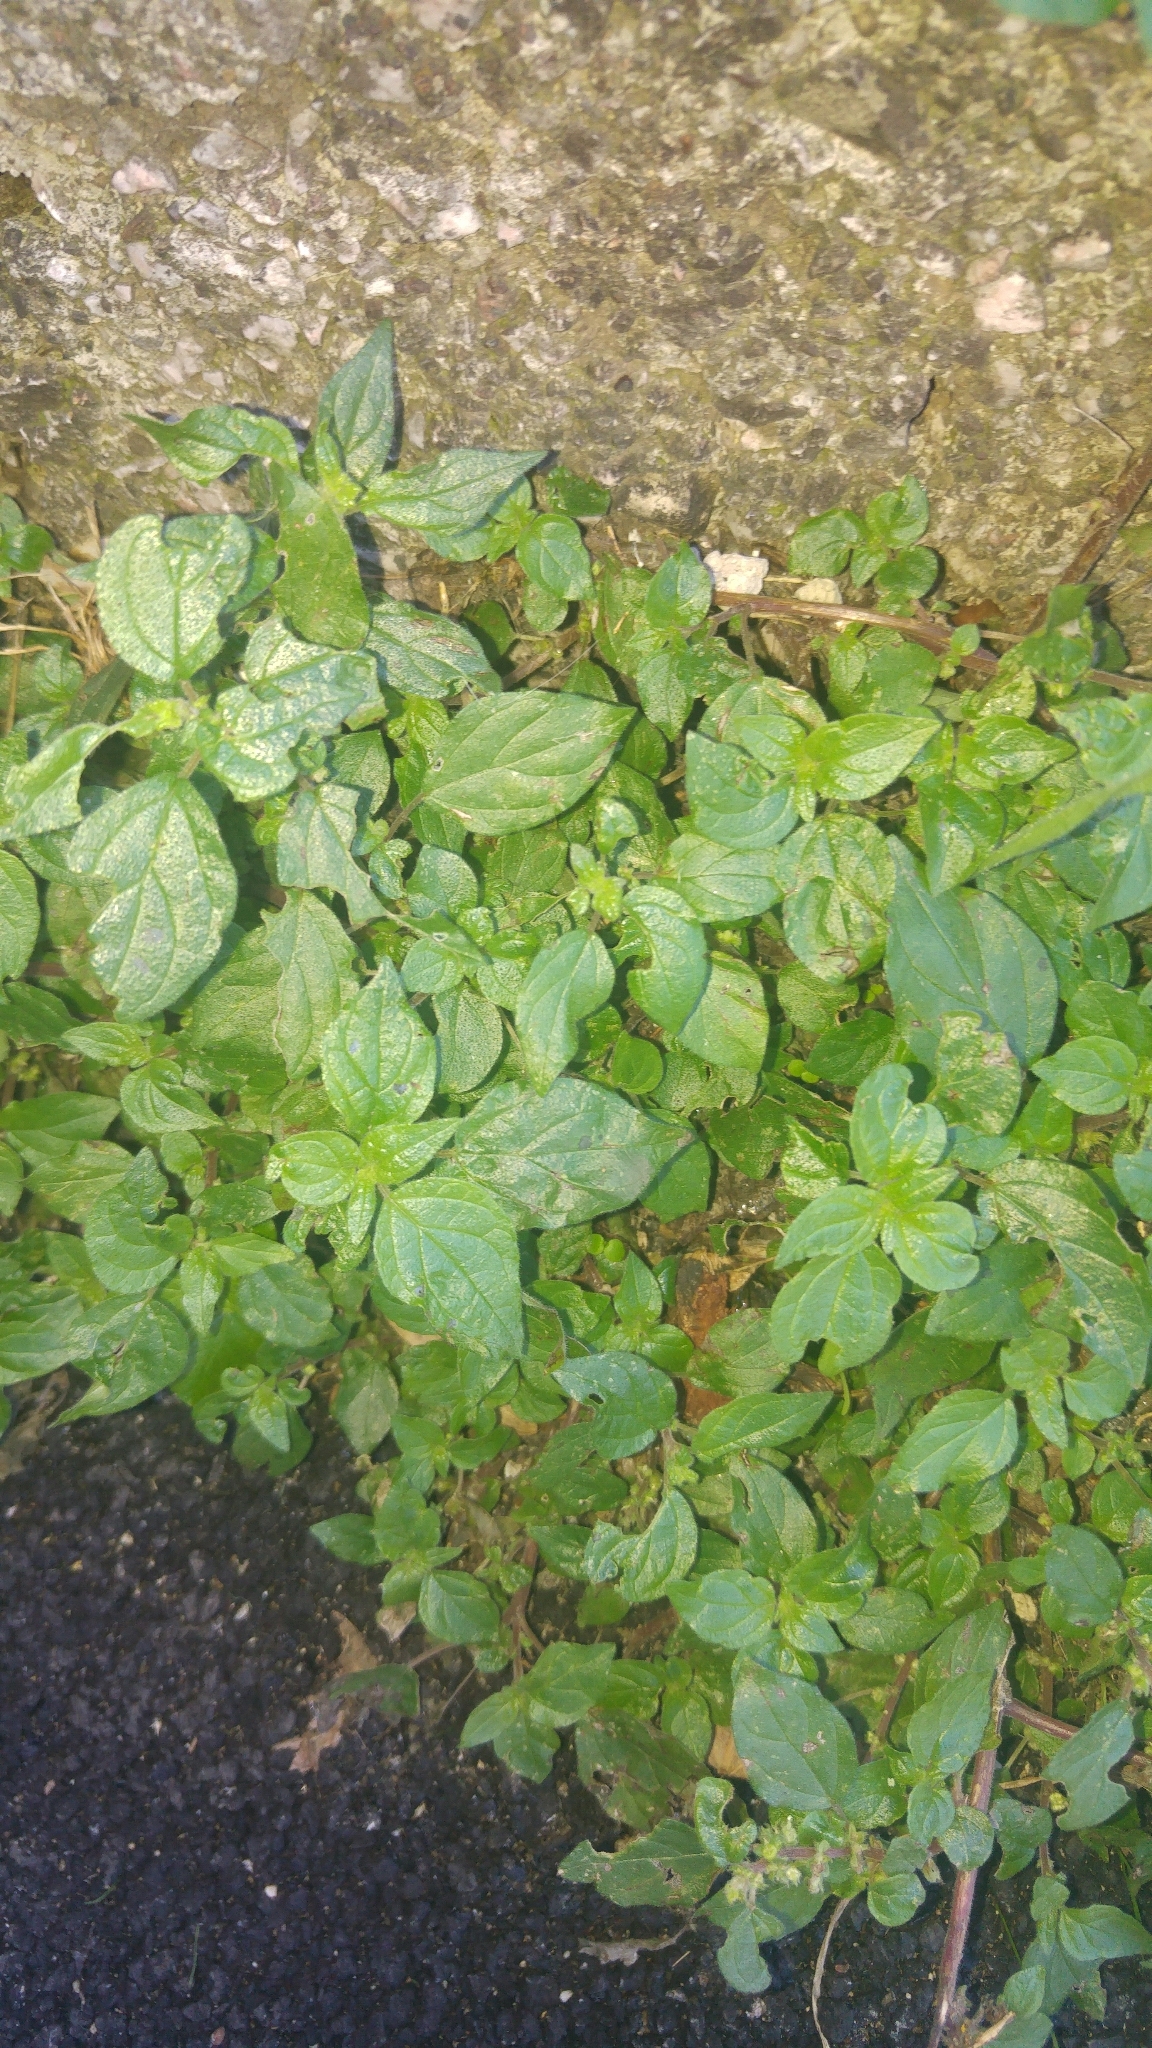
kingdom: Plantae
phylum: Tracheophyta
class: Magnoliopsida
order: Rosales
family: Urticaceae
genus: Parietaria
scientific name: Parietaria judaica
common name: Pellitory-of-the-wall
